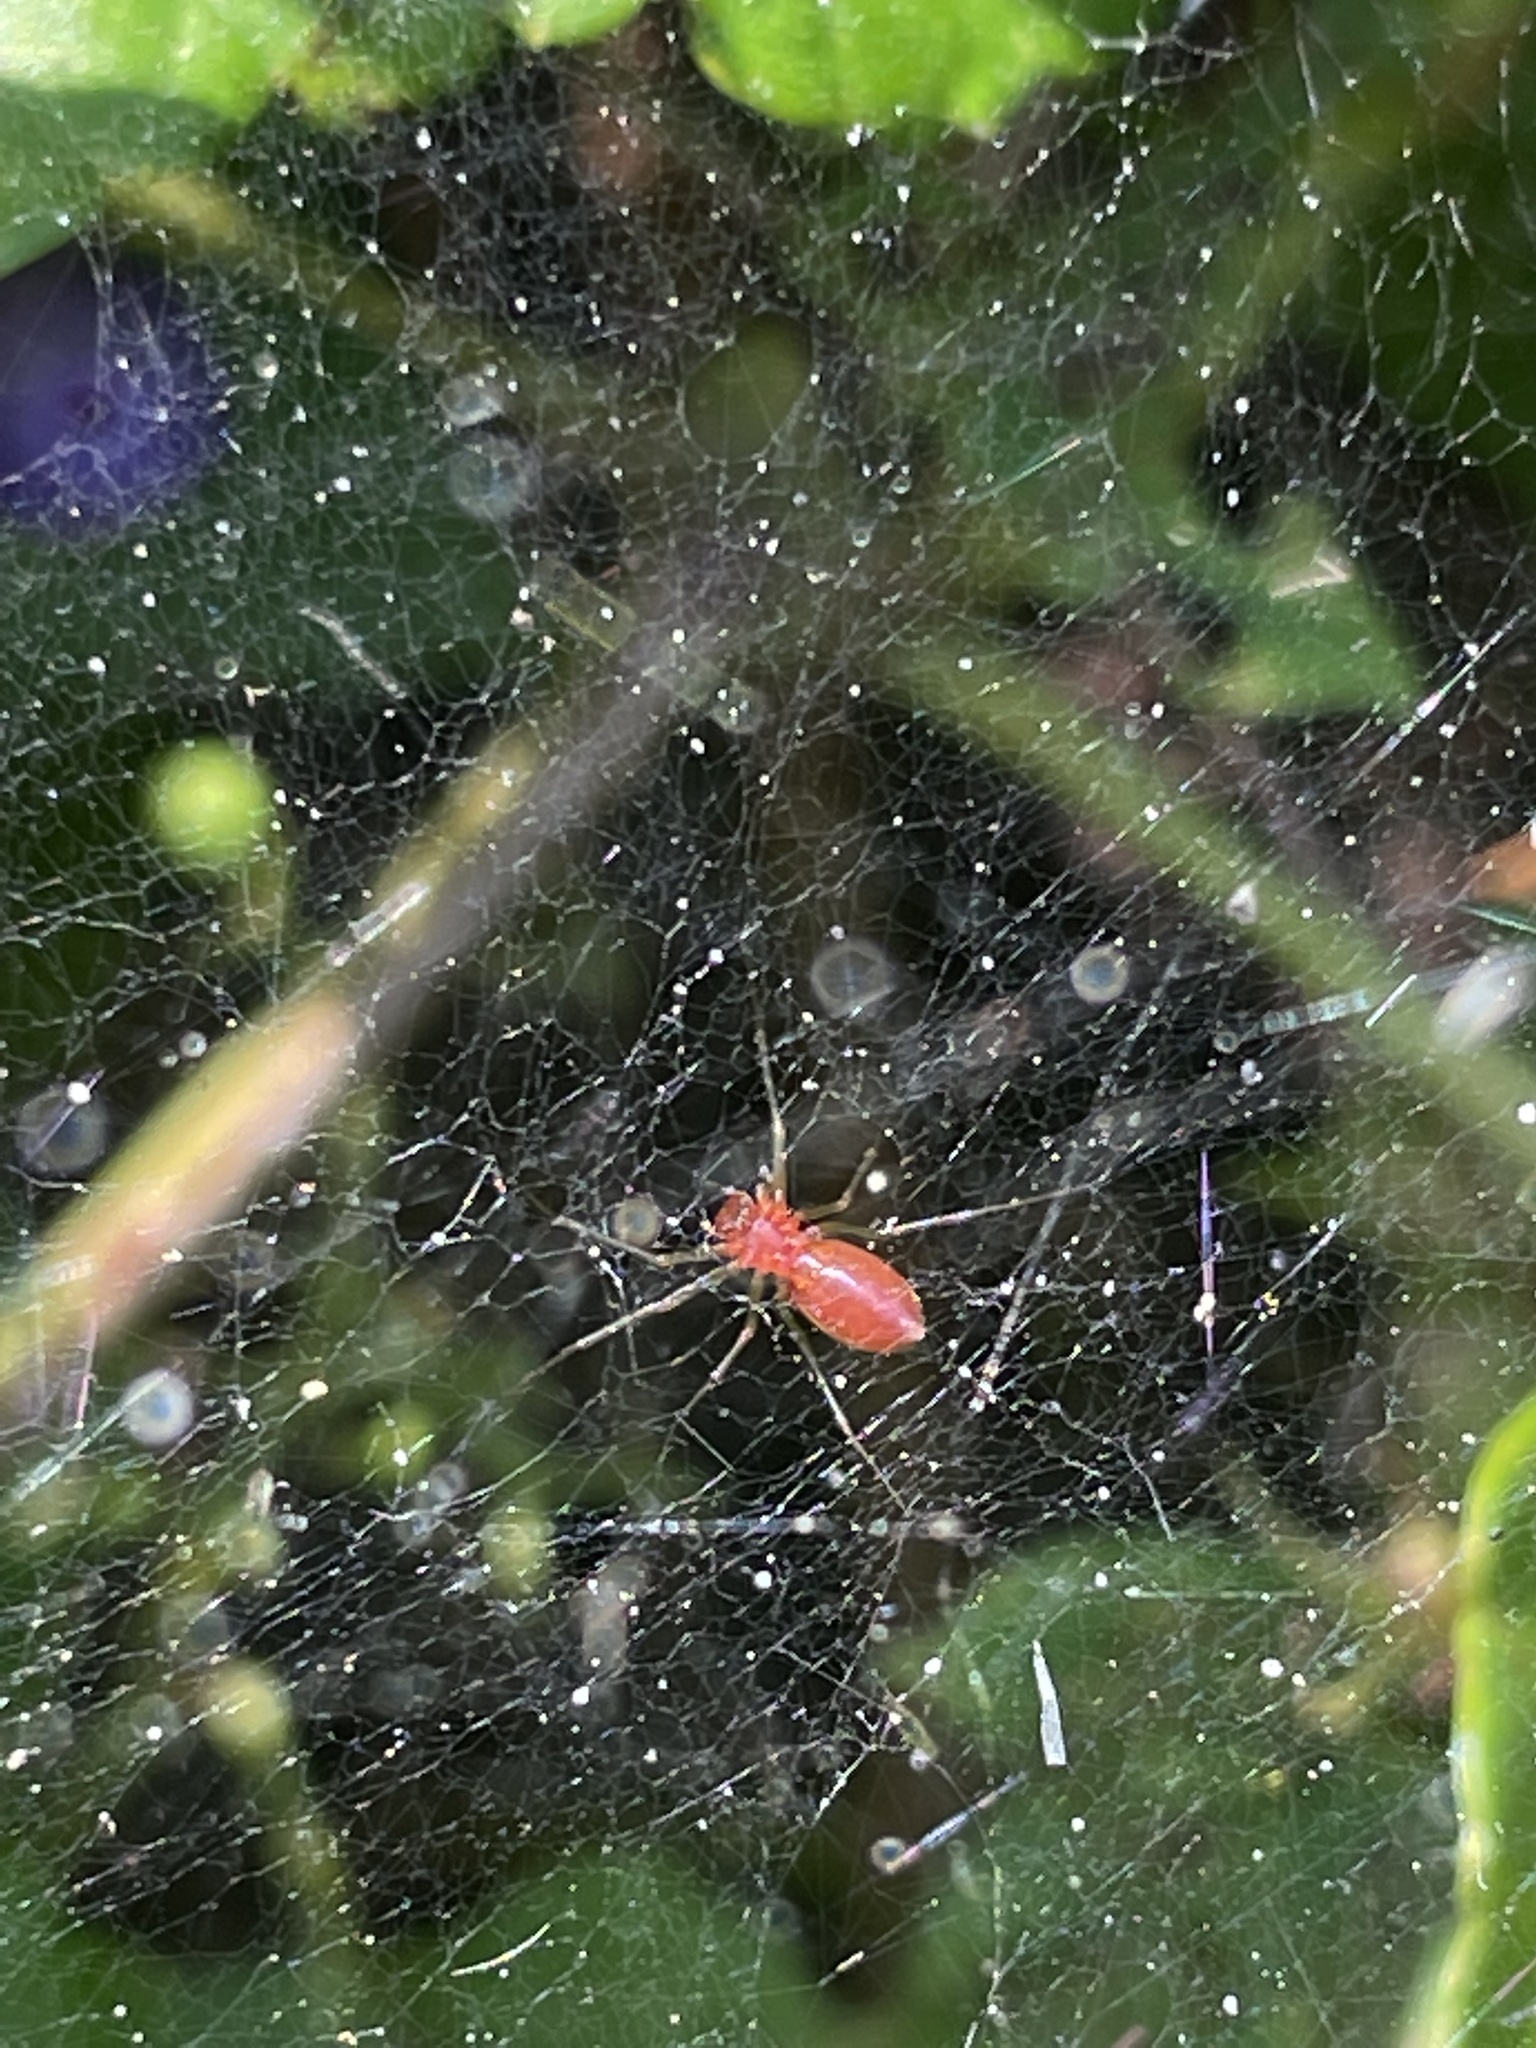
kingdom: Animalia
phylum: Arthropoda
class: Arachnida
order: Araneae
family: Linyphiidae
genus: Florinda
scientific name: Florinda coccinea
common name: Black-tailed red sheetweaver
